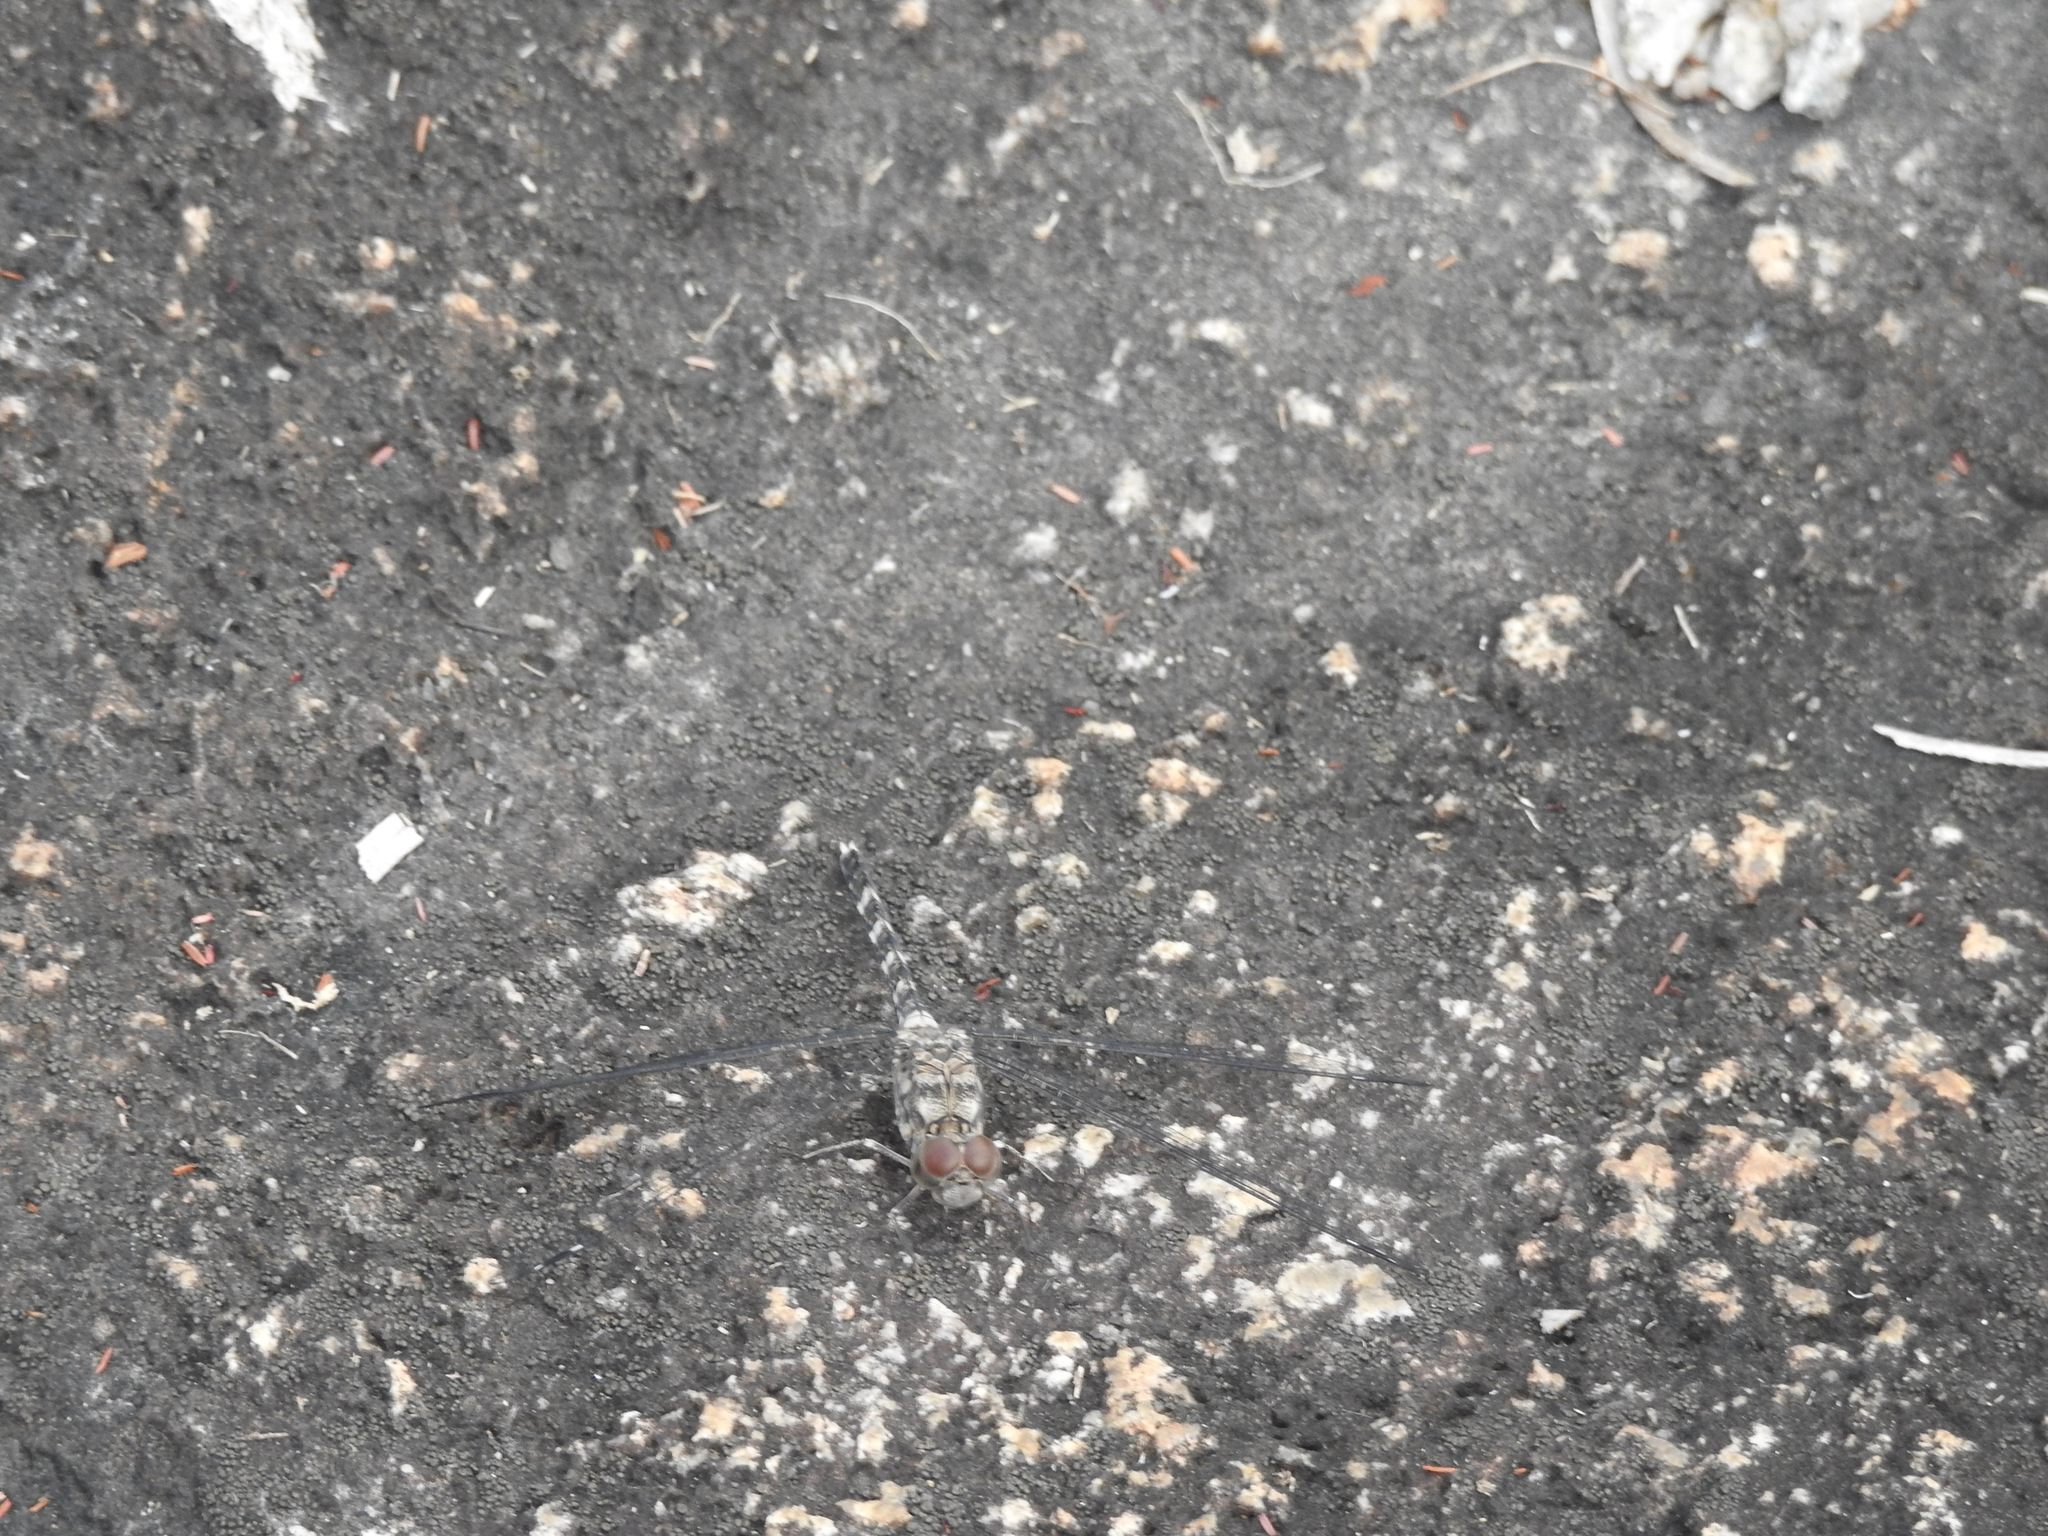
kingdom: Animalia
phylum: Arthropoda
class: Insecta
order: Odonata
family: Libellulidae
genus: Bradinopyga
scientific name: Bradinopyga geminata
